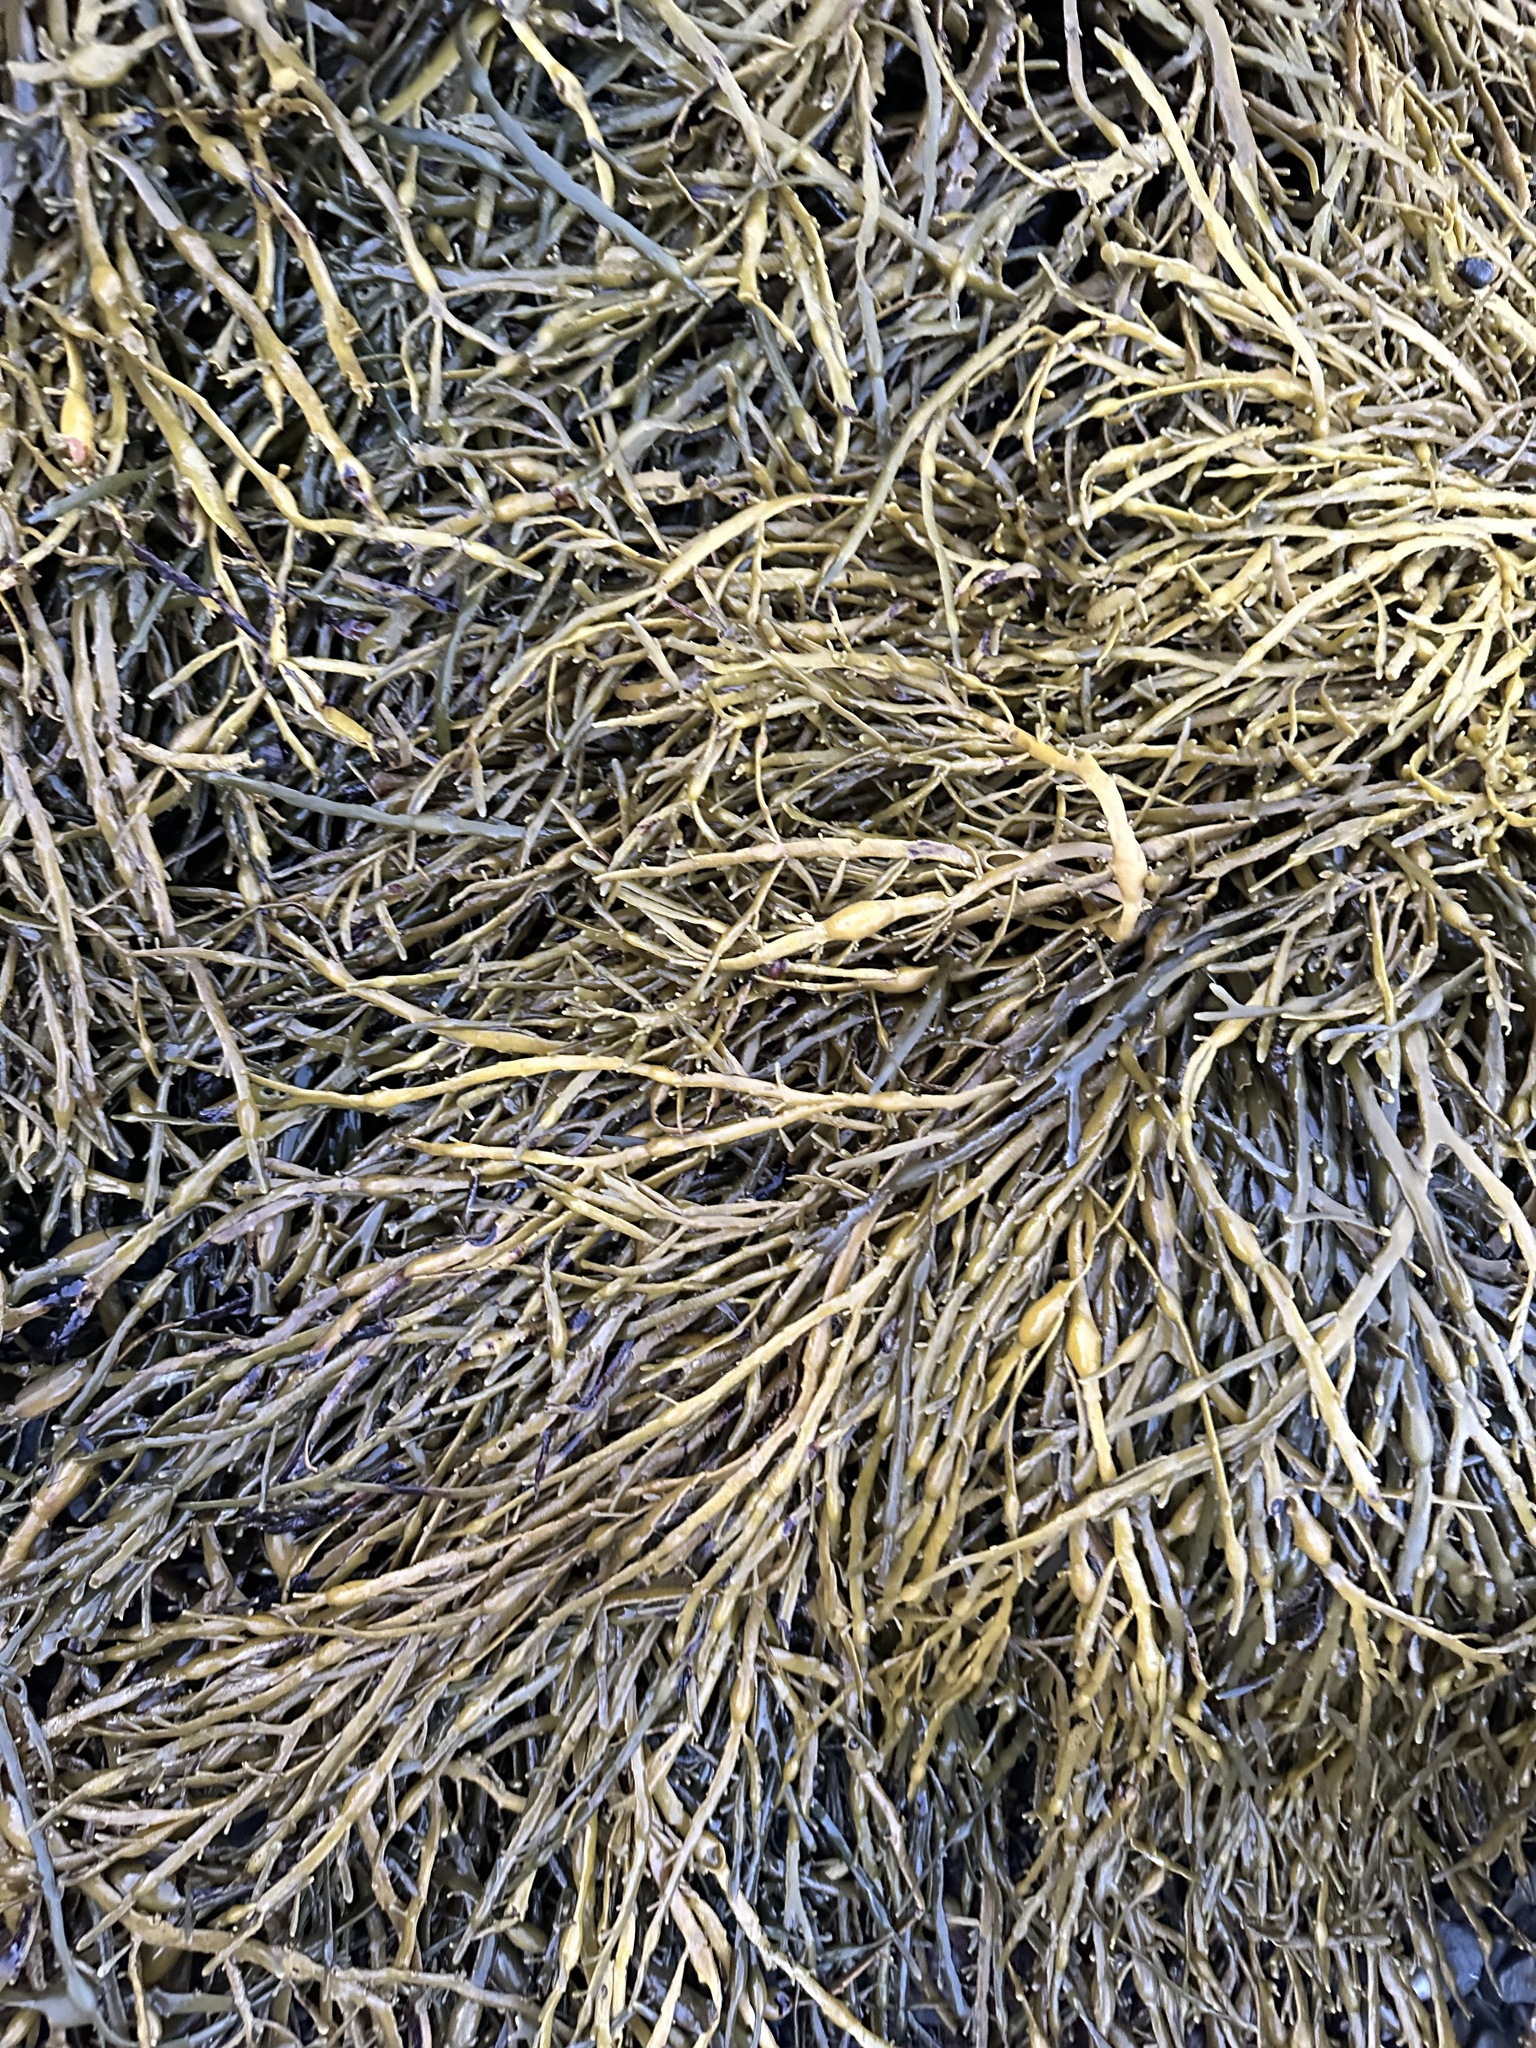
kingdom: Chromista
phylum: Ochrophyta
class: Phaeophyceae
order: Fucales
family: Fucaceae
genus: Ascophyllum
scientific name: Ascophyllum nodosum
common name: Knotted wrack
